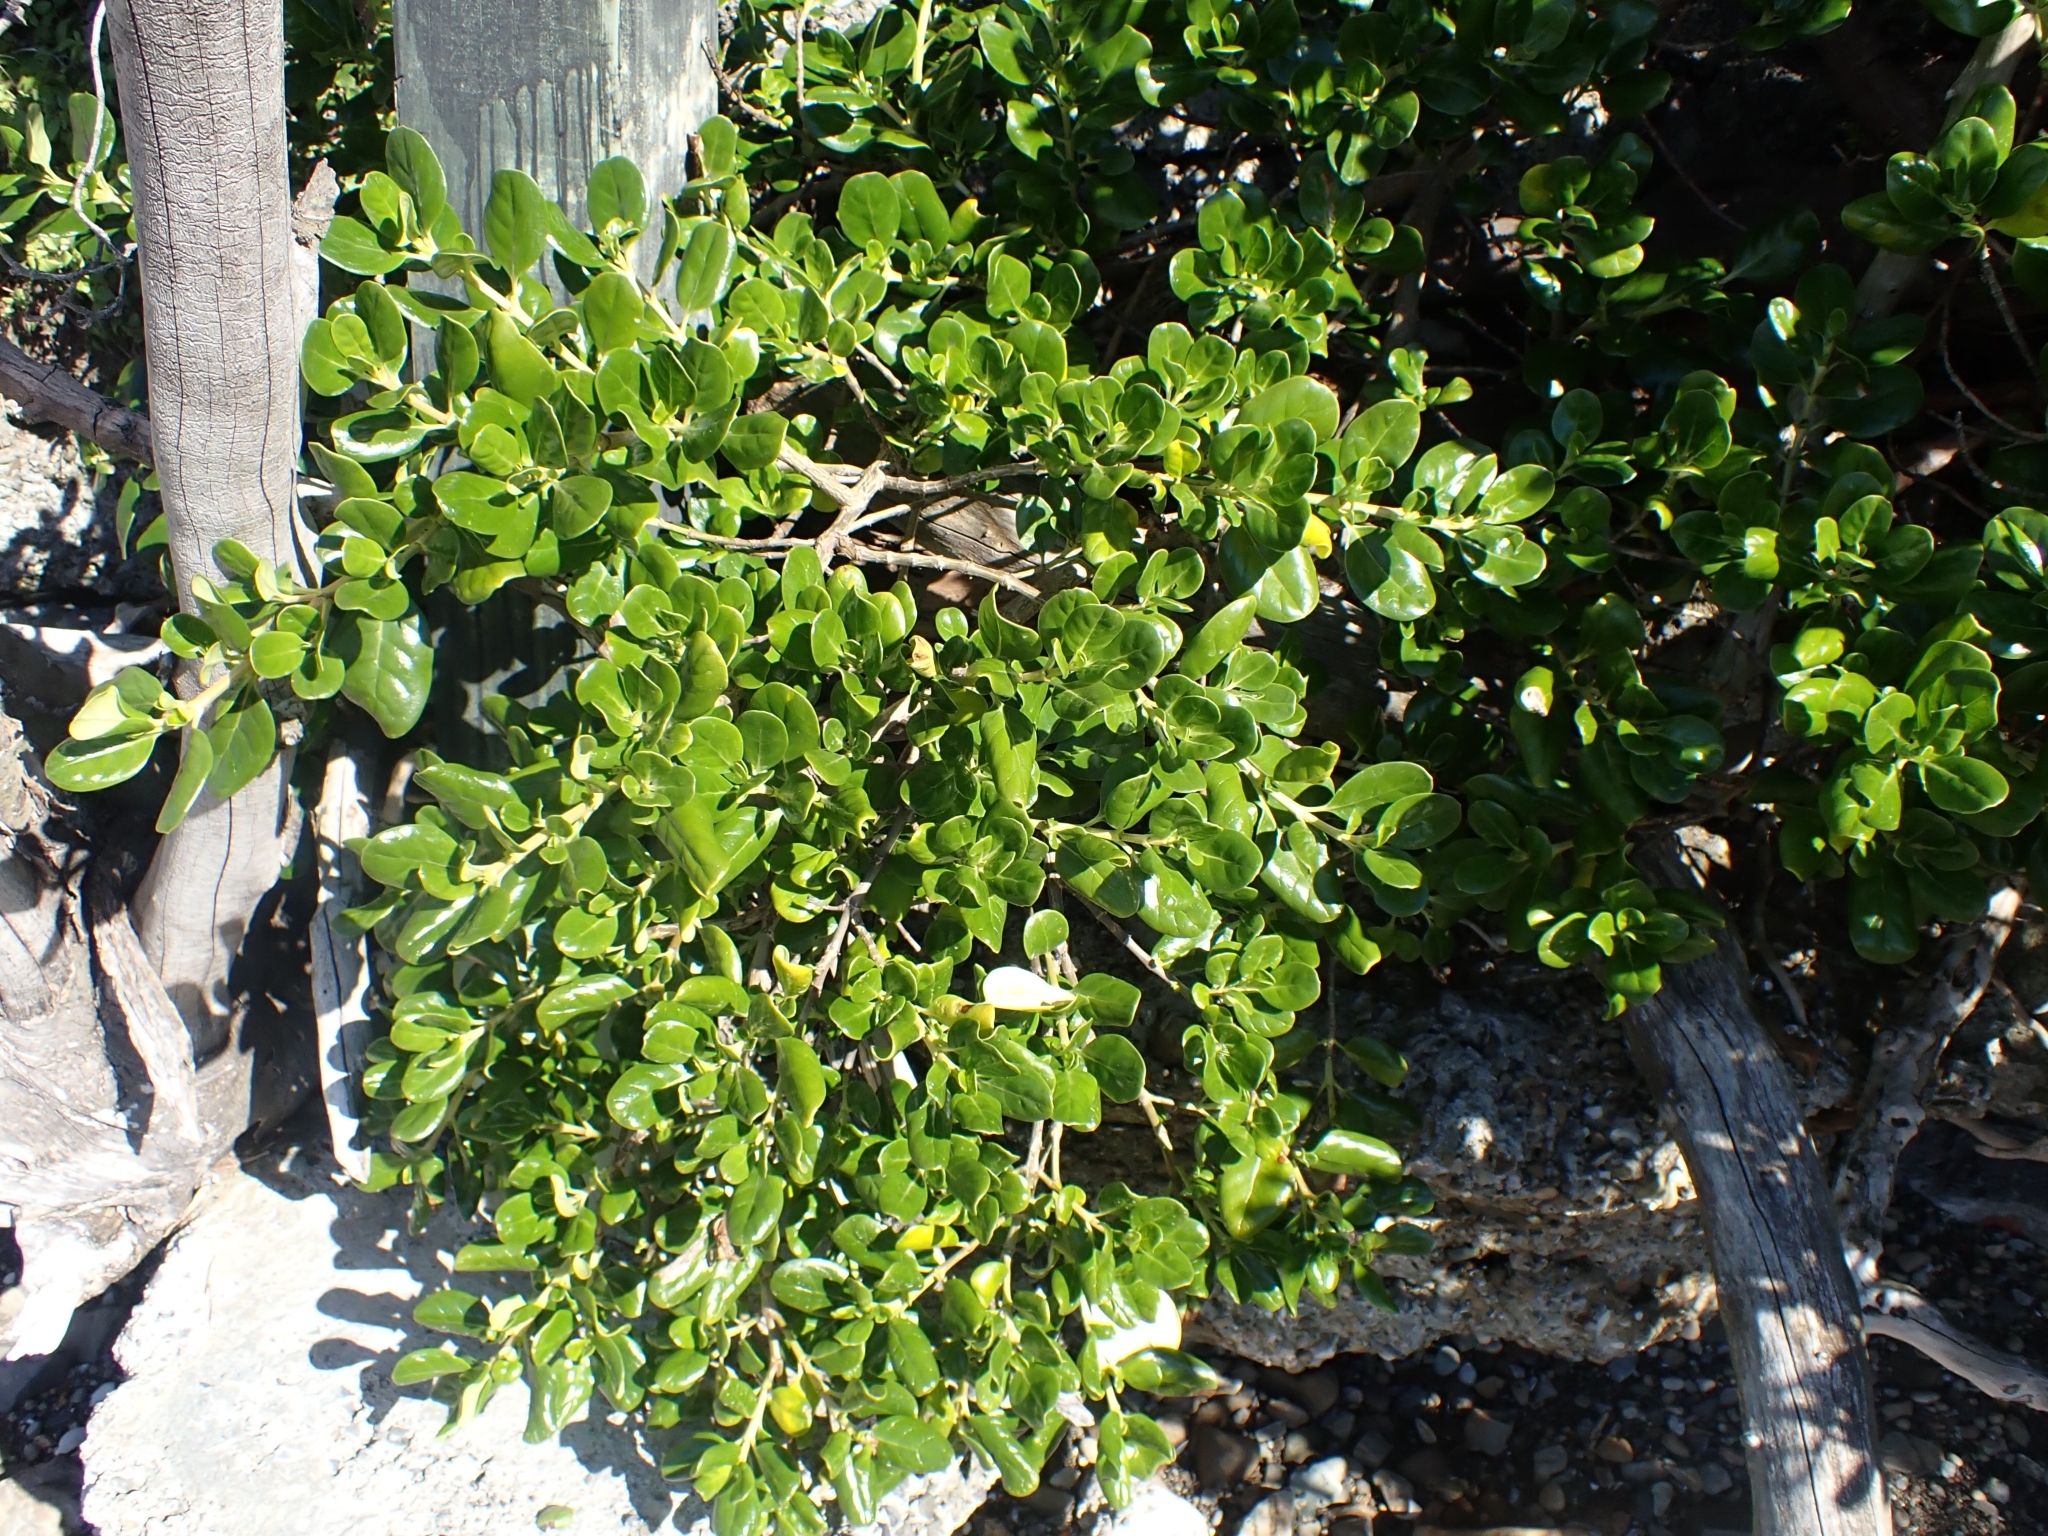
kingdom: Plantae
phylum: Tracheophyta
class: Magnoliopsida
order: Gentianales
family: Rubiaceae
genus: Coprosma
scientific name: Coprosma repens
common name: Tree bedstraw
